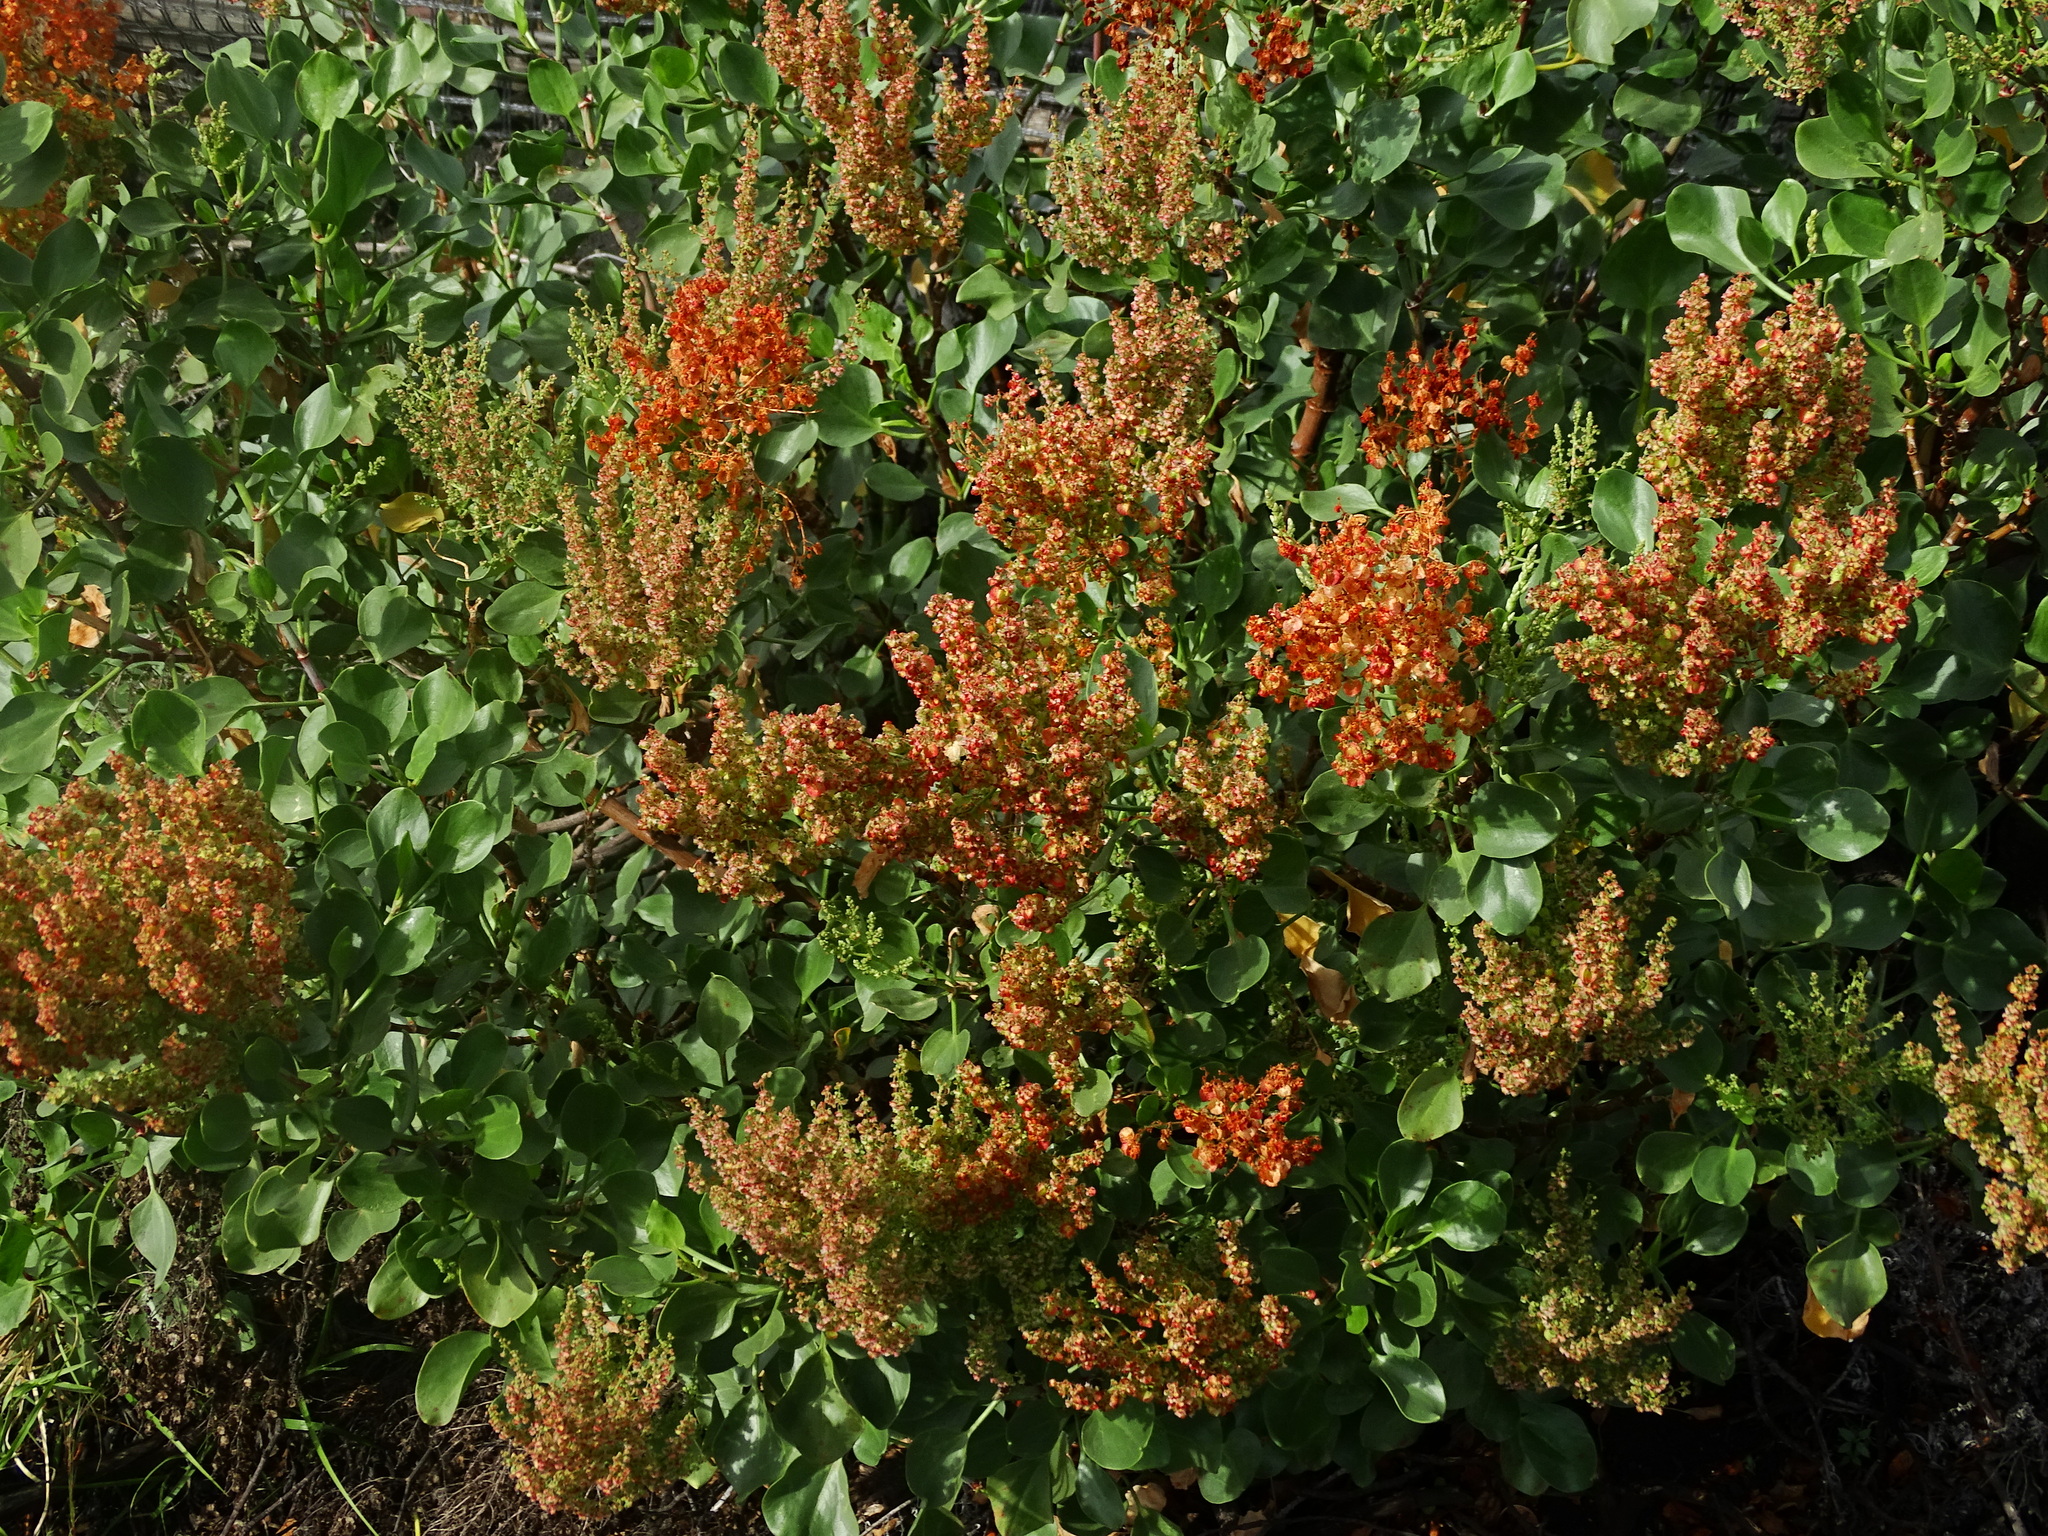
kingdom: Plantae
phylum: Tracheophyta
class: Magnoliopsida
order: Caryophyllales
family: Polygonaceae
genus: Rumex
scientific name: Rumex lunaria
